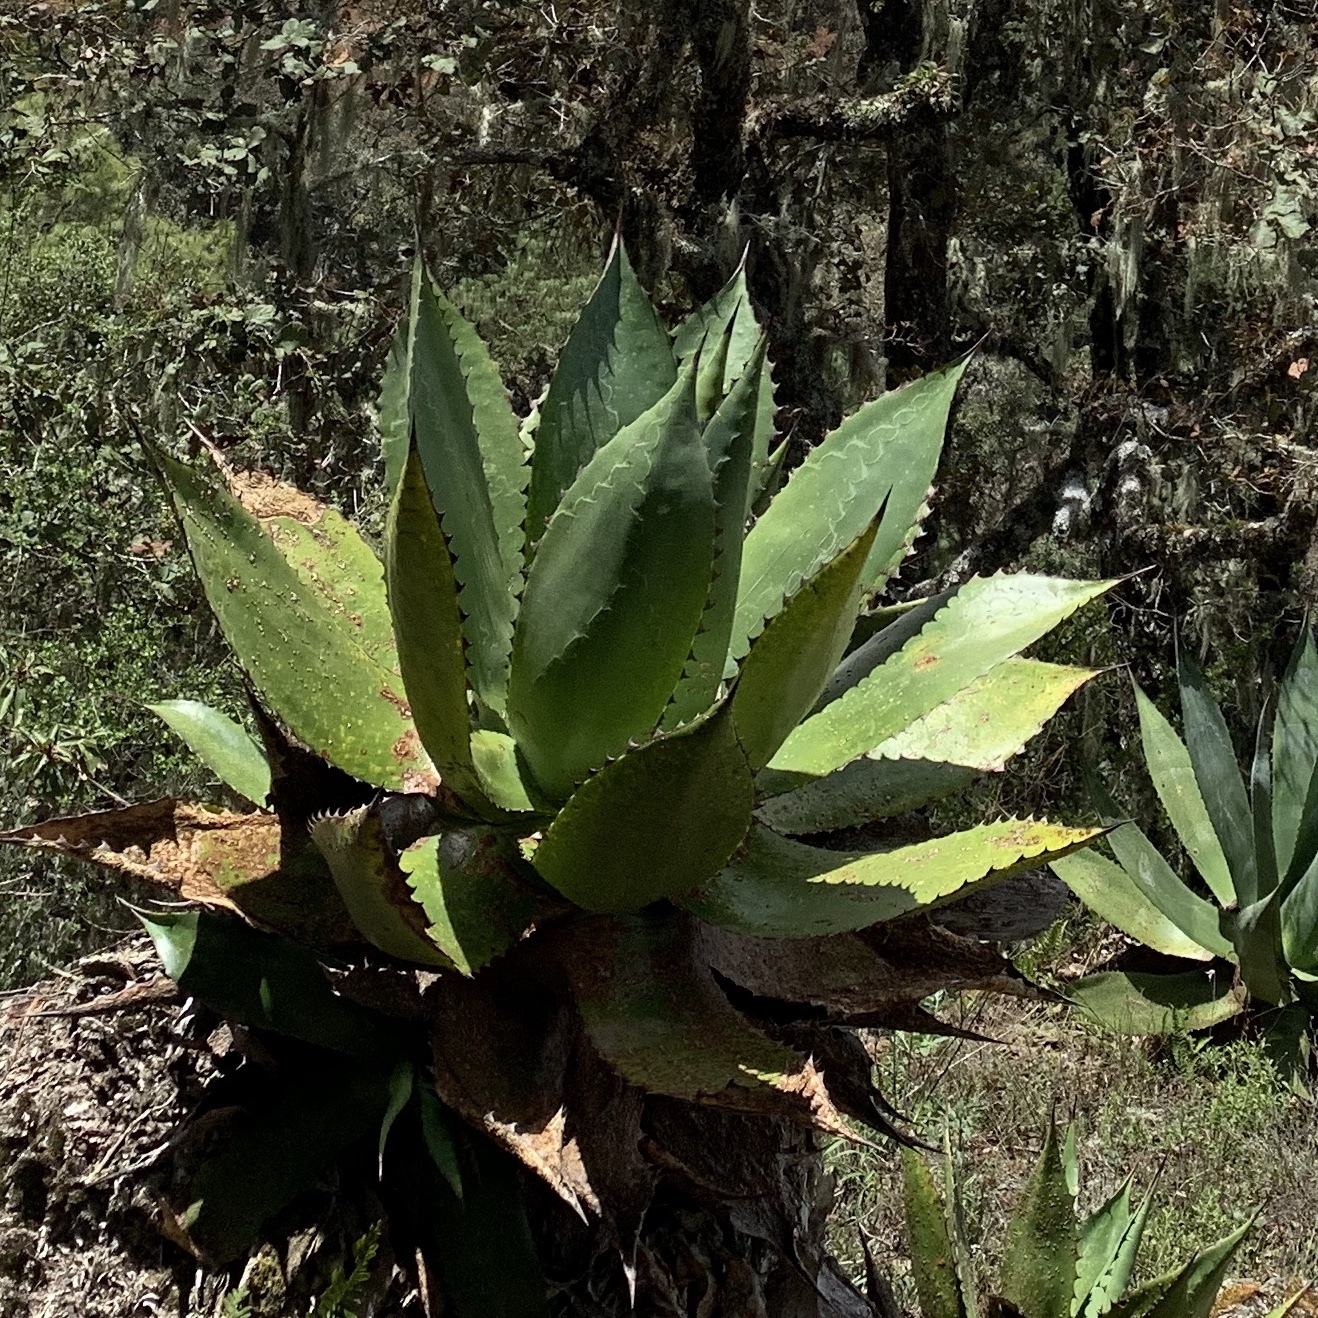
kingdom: Plantae
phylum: Tracheophyta
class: Liliopsida
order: Asparagales
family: Asparagaceae
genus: Agave
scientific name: Agave marmorata
